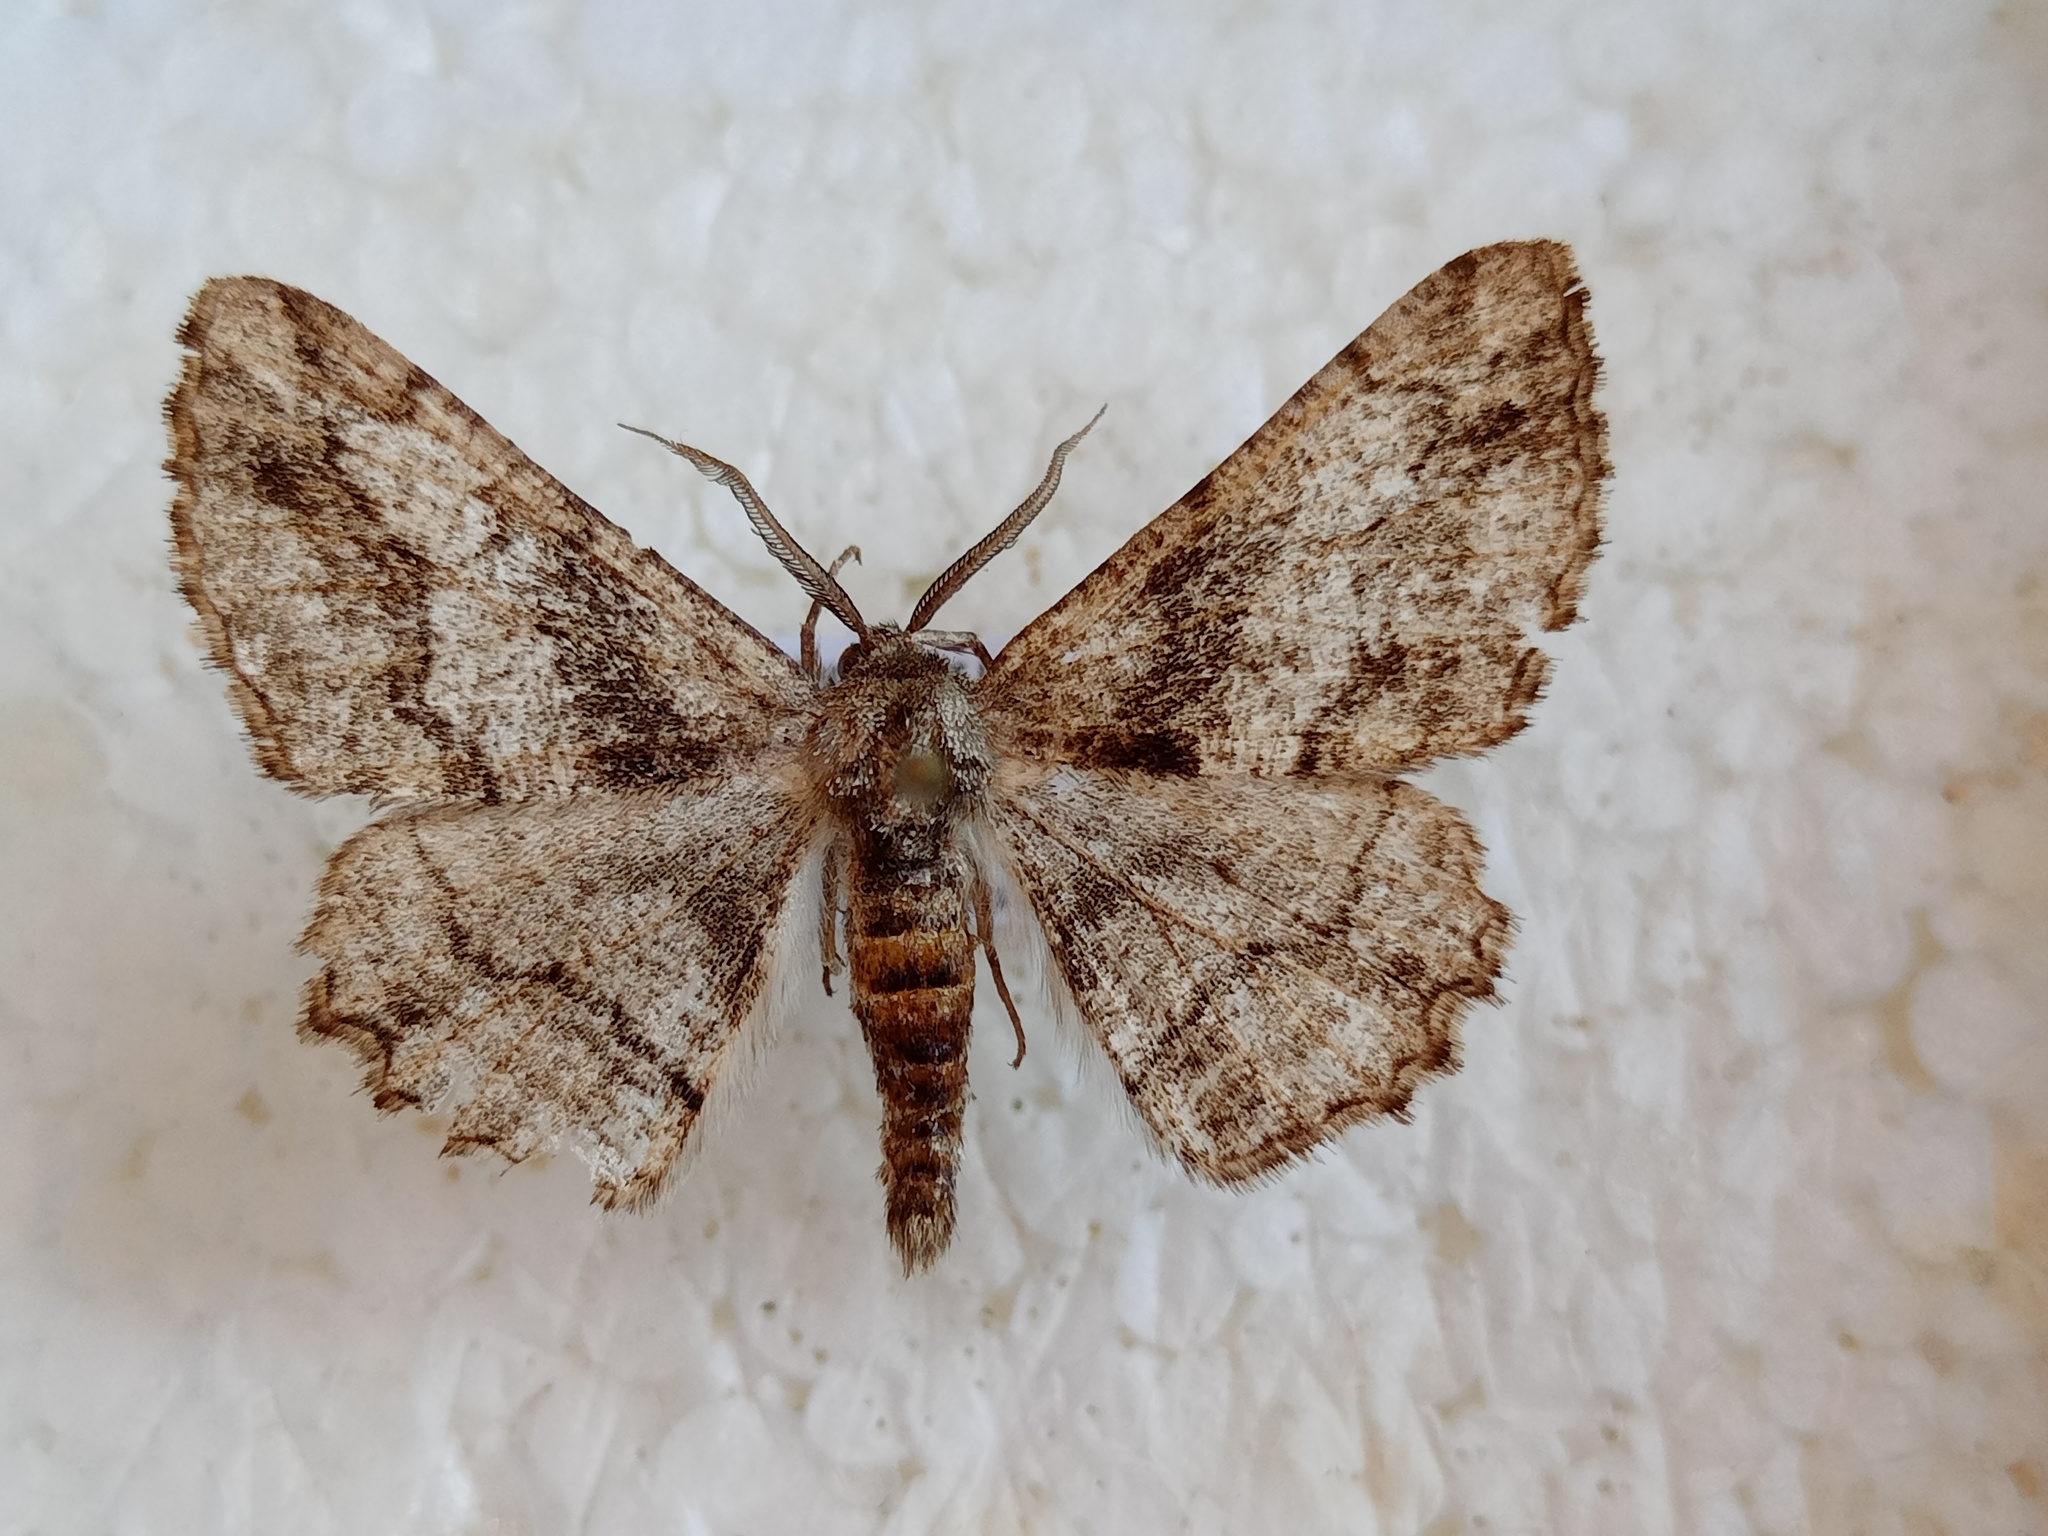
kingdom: Animalia
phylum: Arthropoda
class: Insecta
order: Lepidoptera
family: Geometridae
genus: Synopsia
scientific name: Synopsia sociaria
